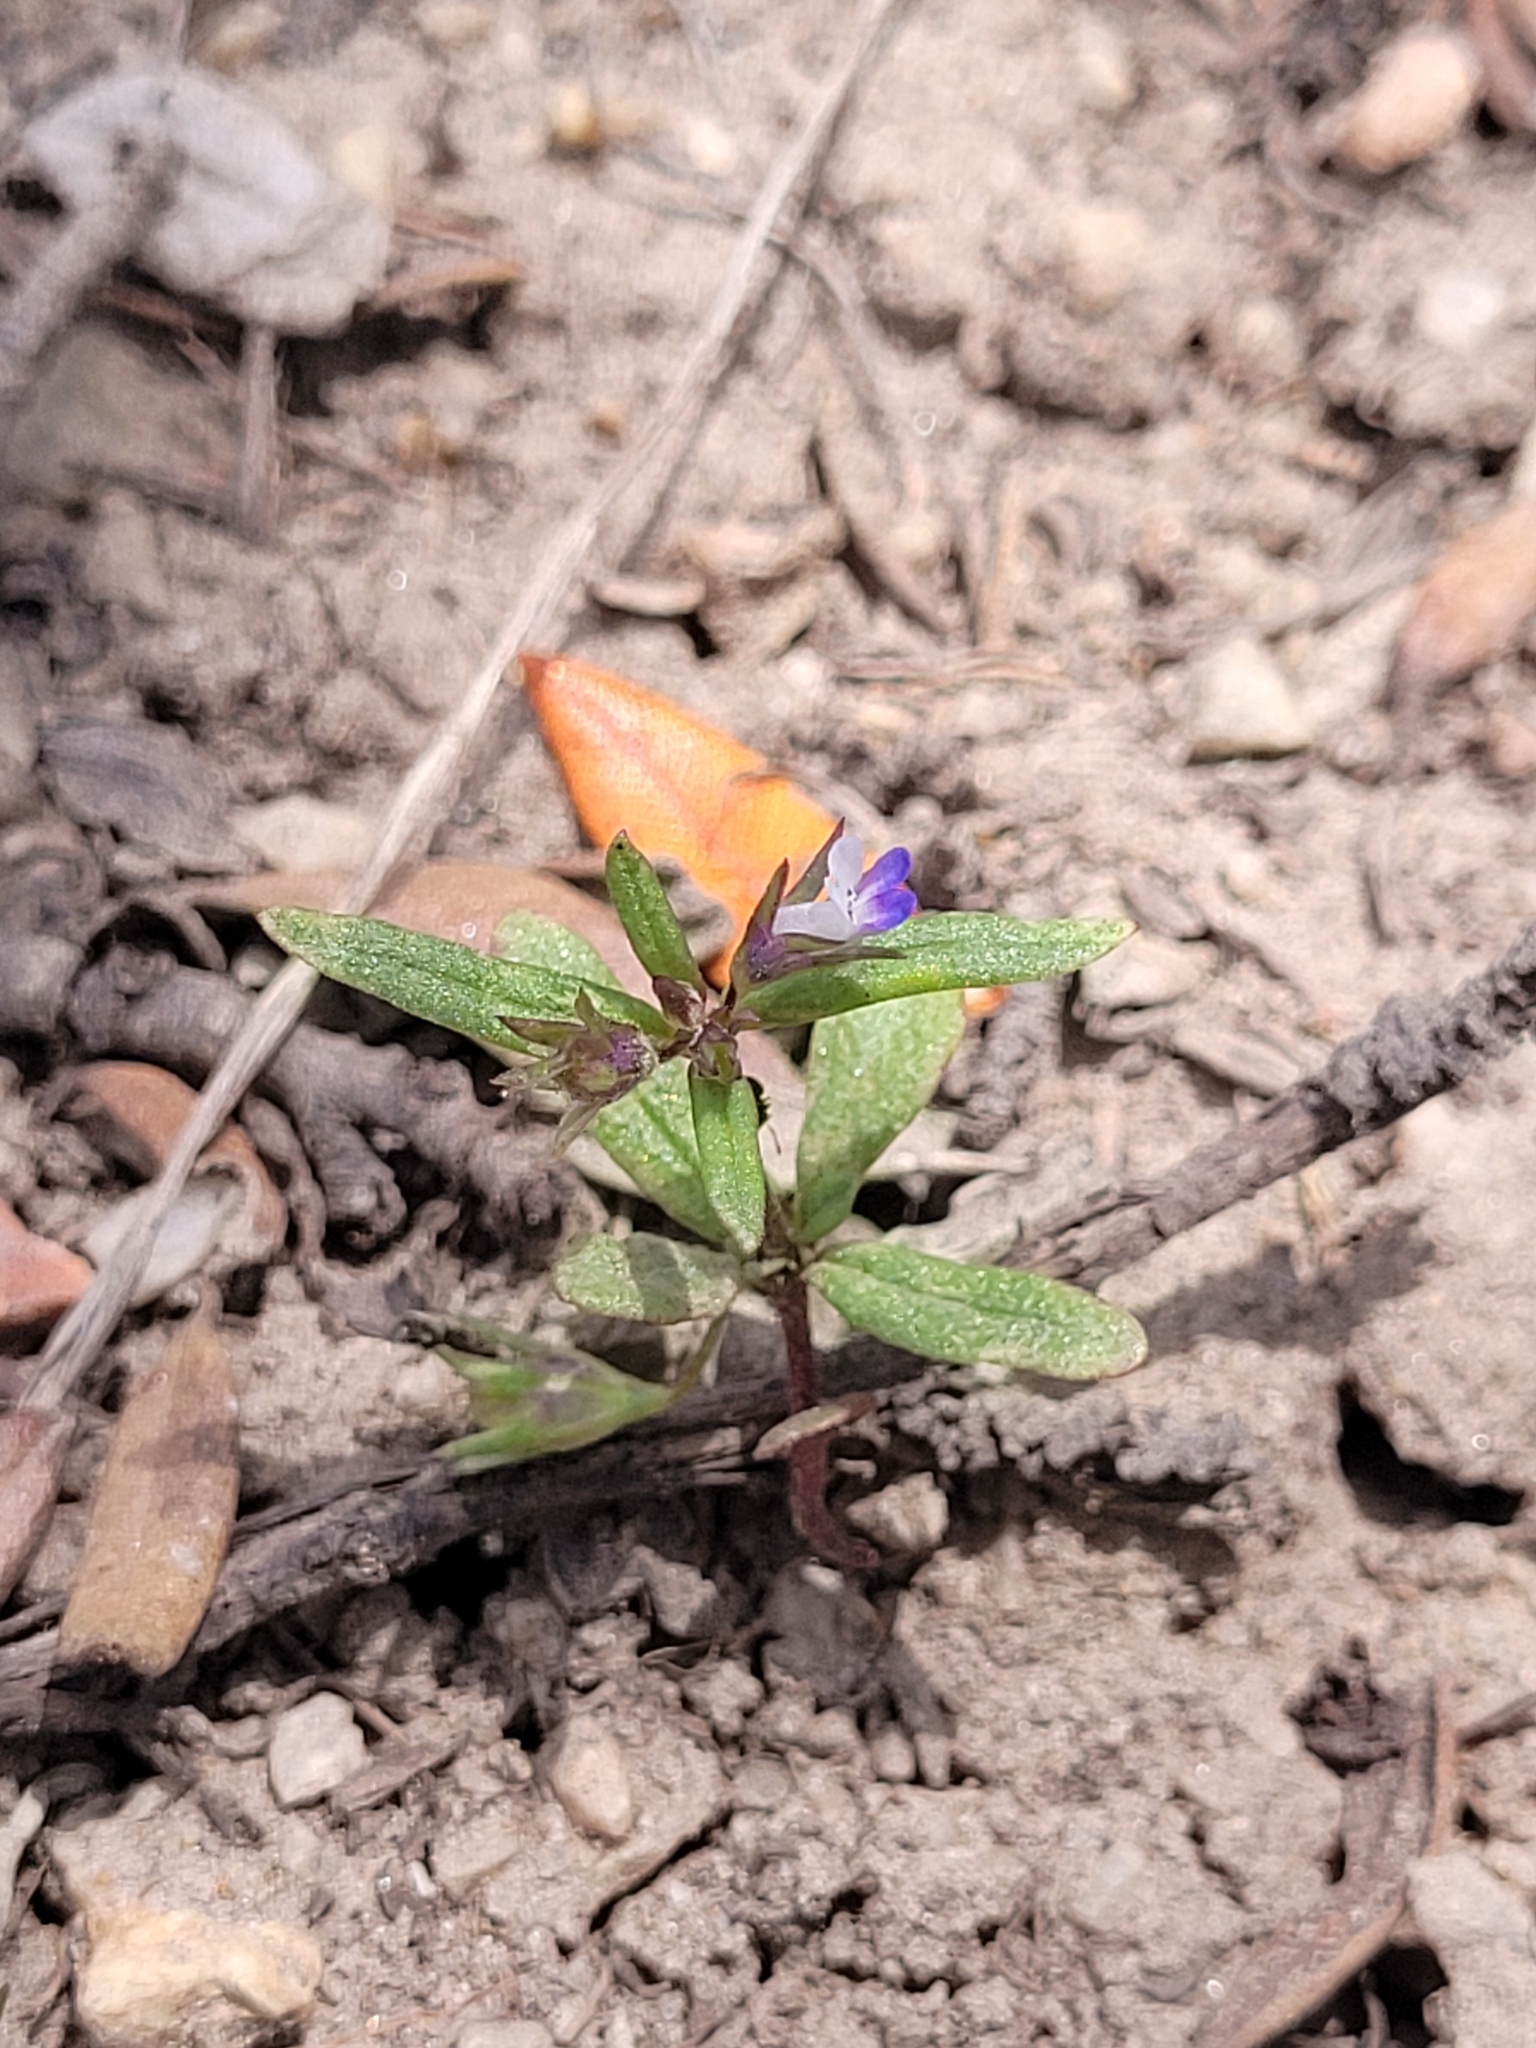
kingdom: Plantae
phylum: Tracheophyta
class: Magnoliopsida
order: Lamiales
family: Plantaginaceae
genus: Collinsia
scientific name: Collinsia parviflora
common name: Blue-lips
